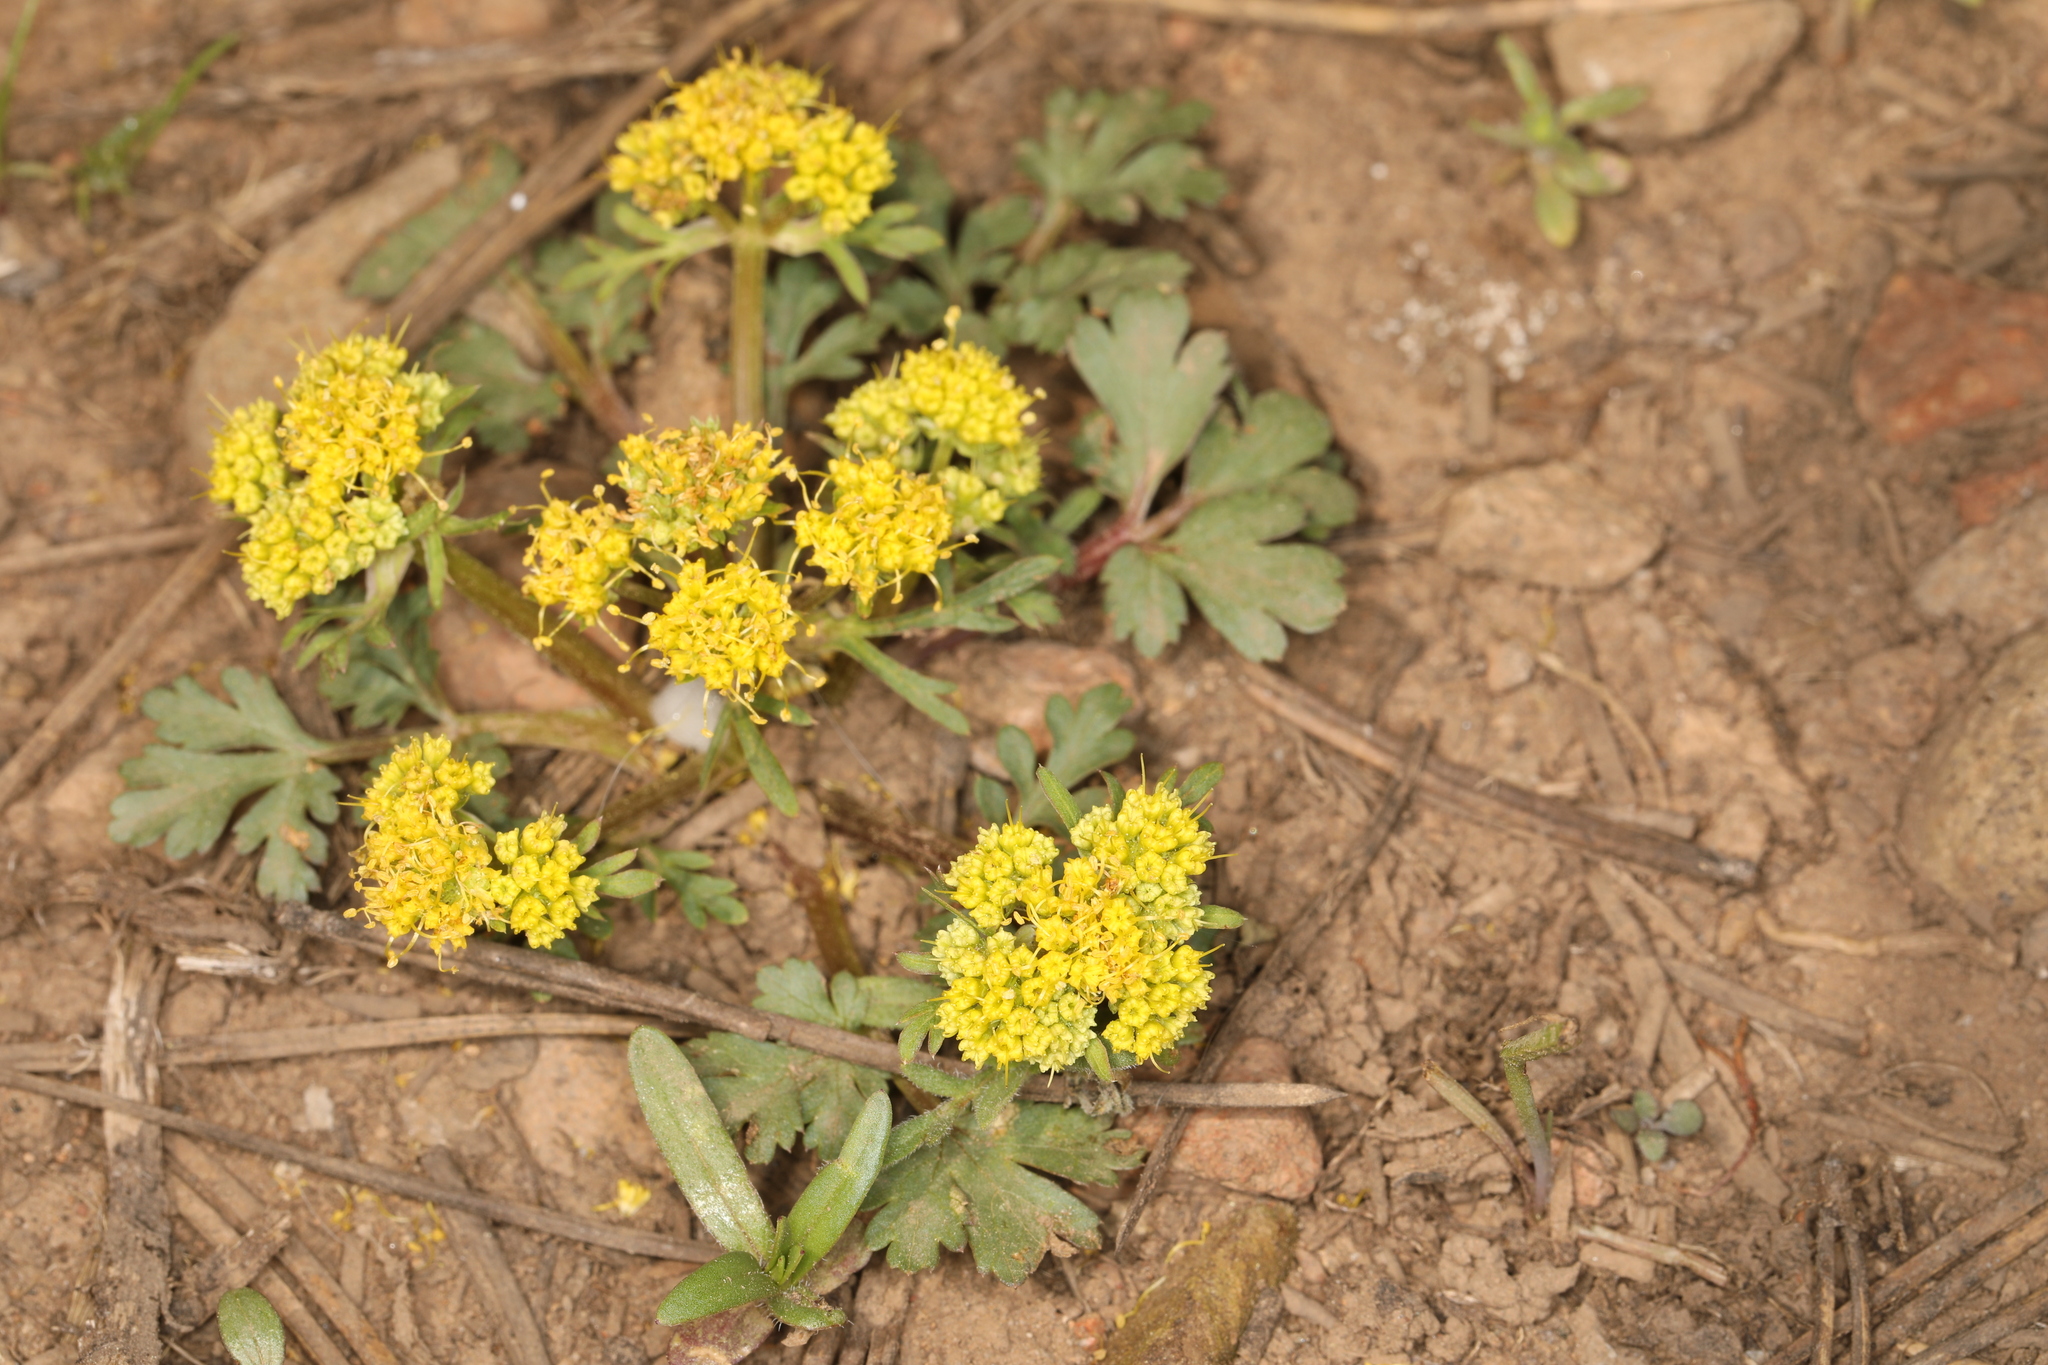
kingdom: Plantae
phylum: Tracheophyta
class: Magnoliopsida
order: Apiales
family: Apiaceae
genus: Sanicula
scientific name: Sanicula graveolens
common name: Sierra sanicle
